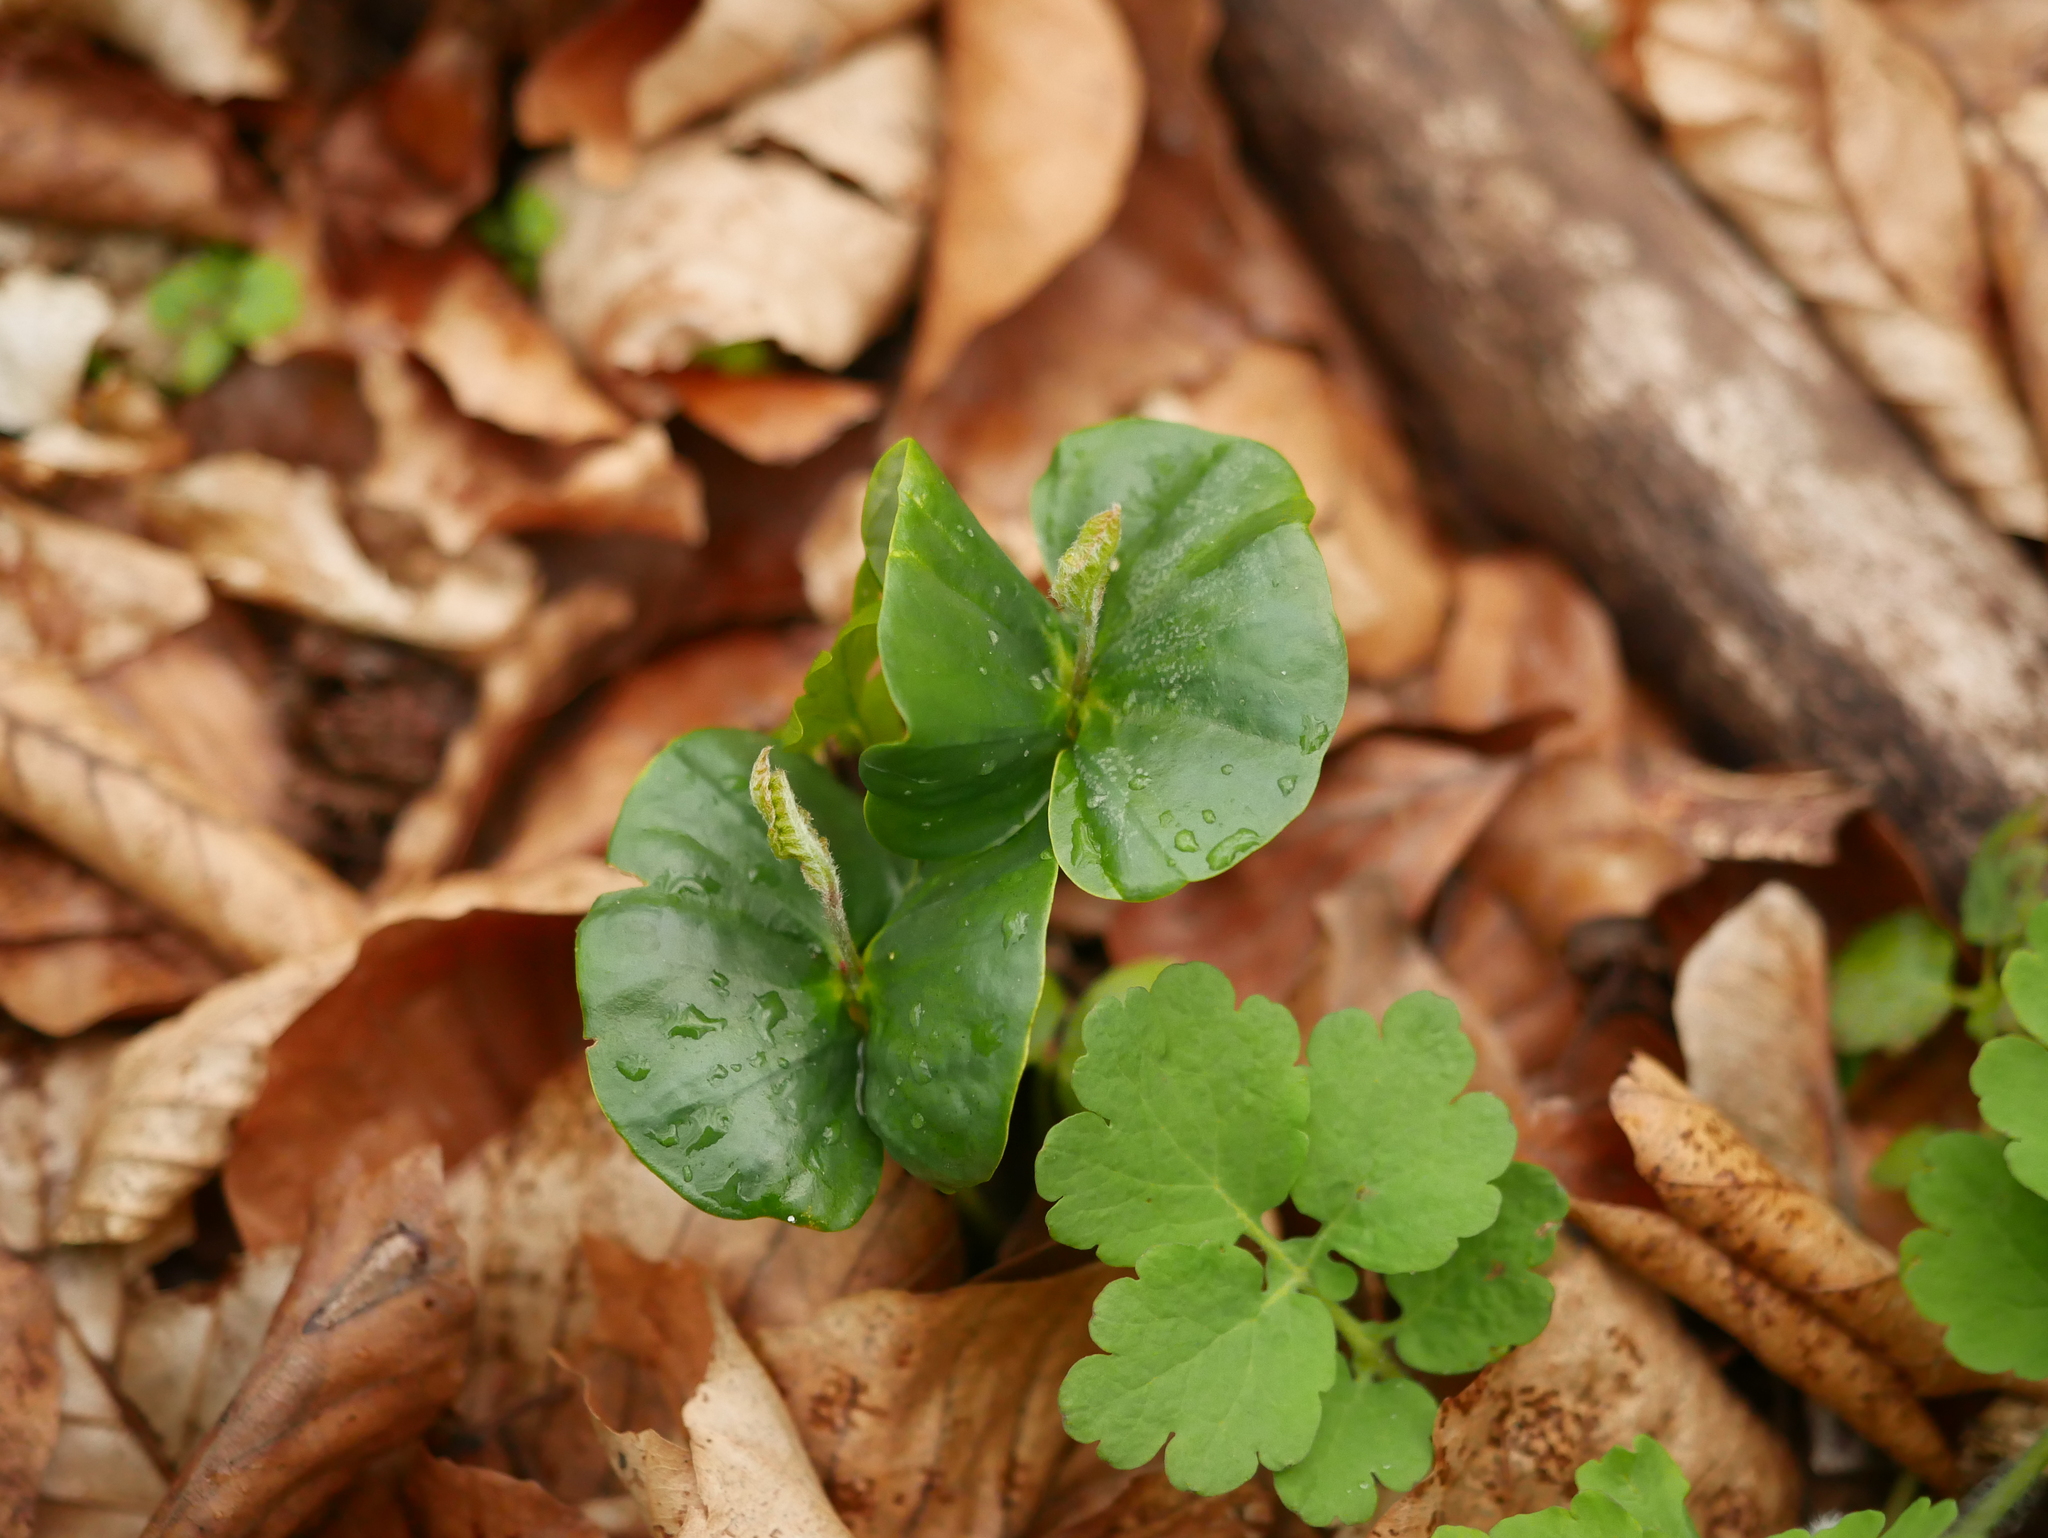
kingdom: Plantae
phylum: Tracheophyta
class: Magnoliopsida
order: Fagales
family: Fagaceae
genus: Fagus
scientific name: Fagus sylvatica
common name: Beech
